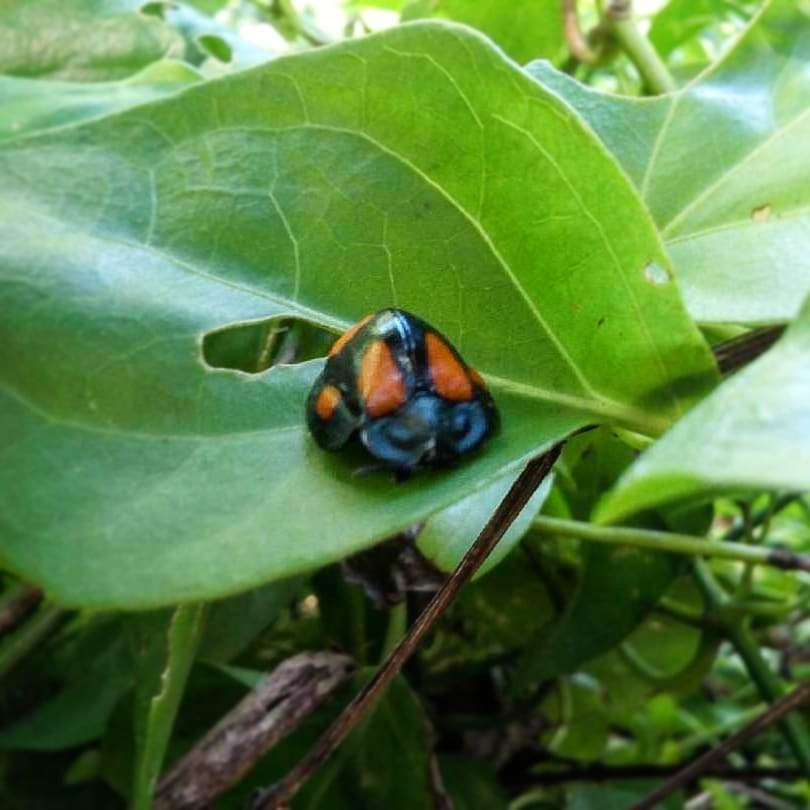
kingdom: Animalia
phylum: Arthropoda
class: Insecta
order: Coleoptera
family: Chrysomelidae
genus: Stolas
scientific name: Stolas illustris
